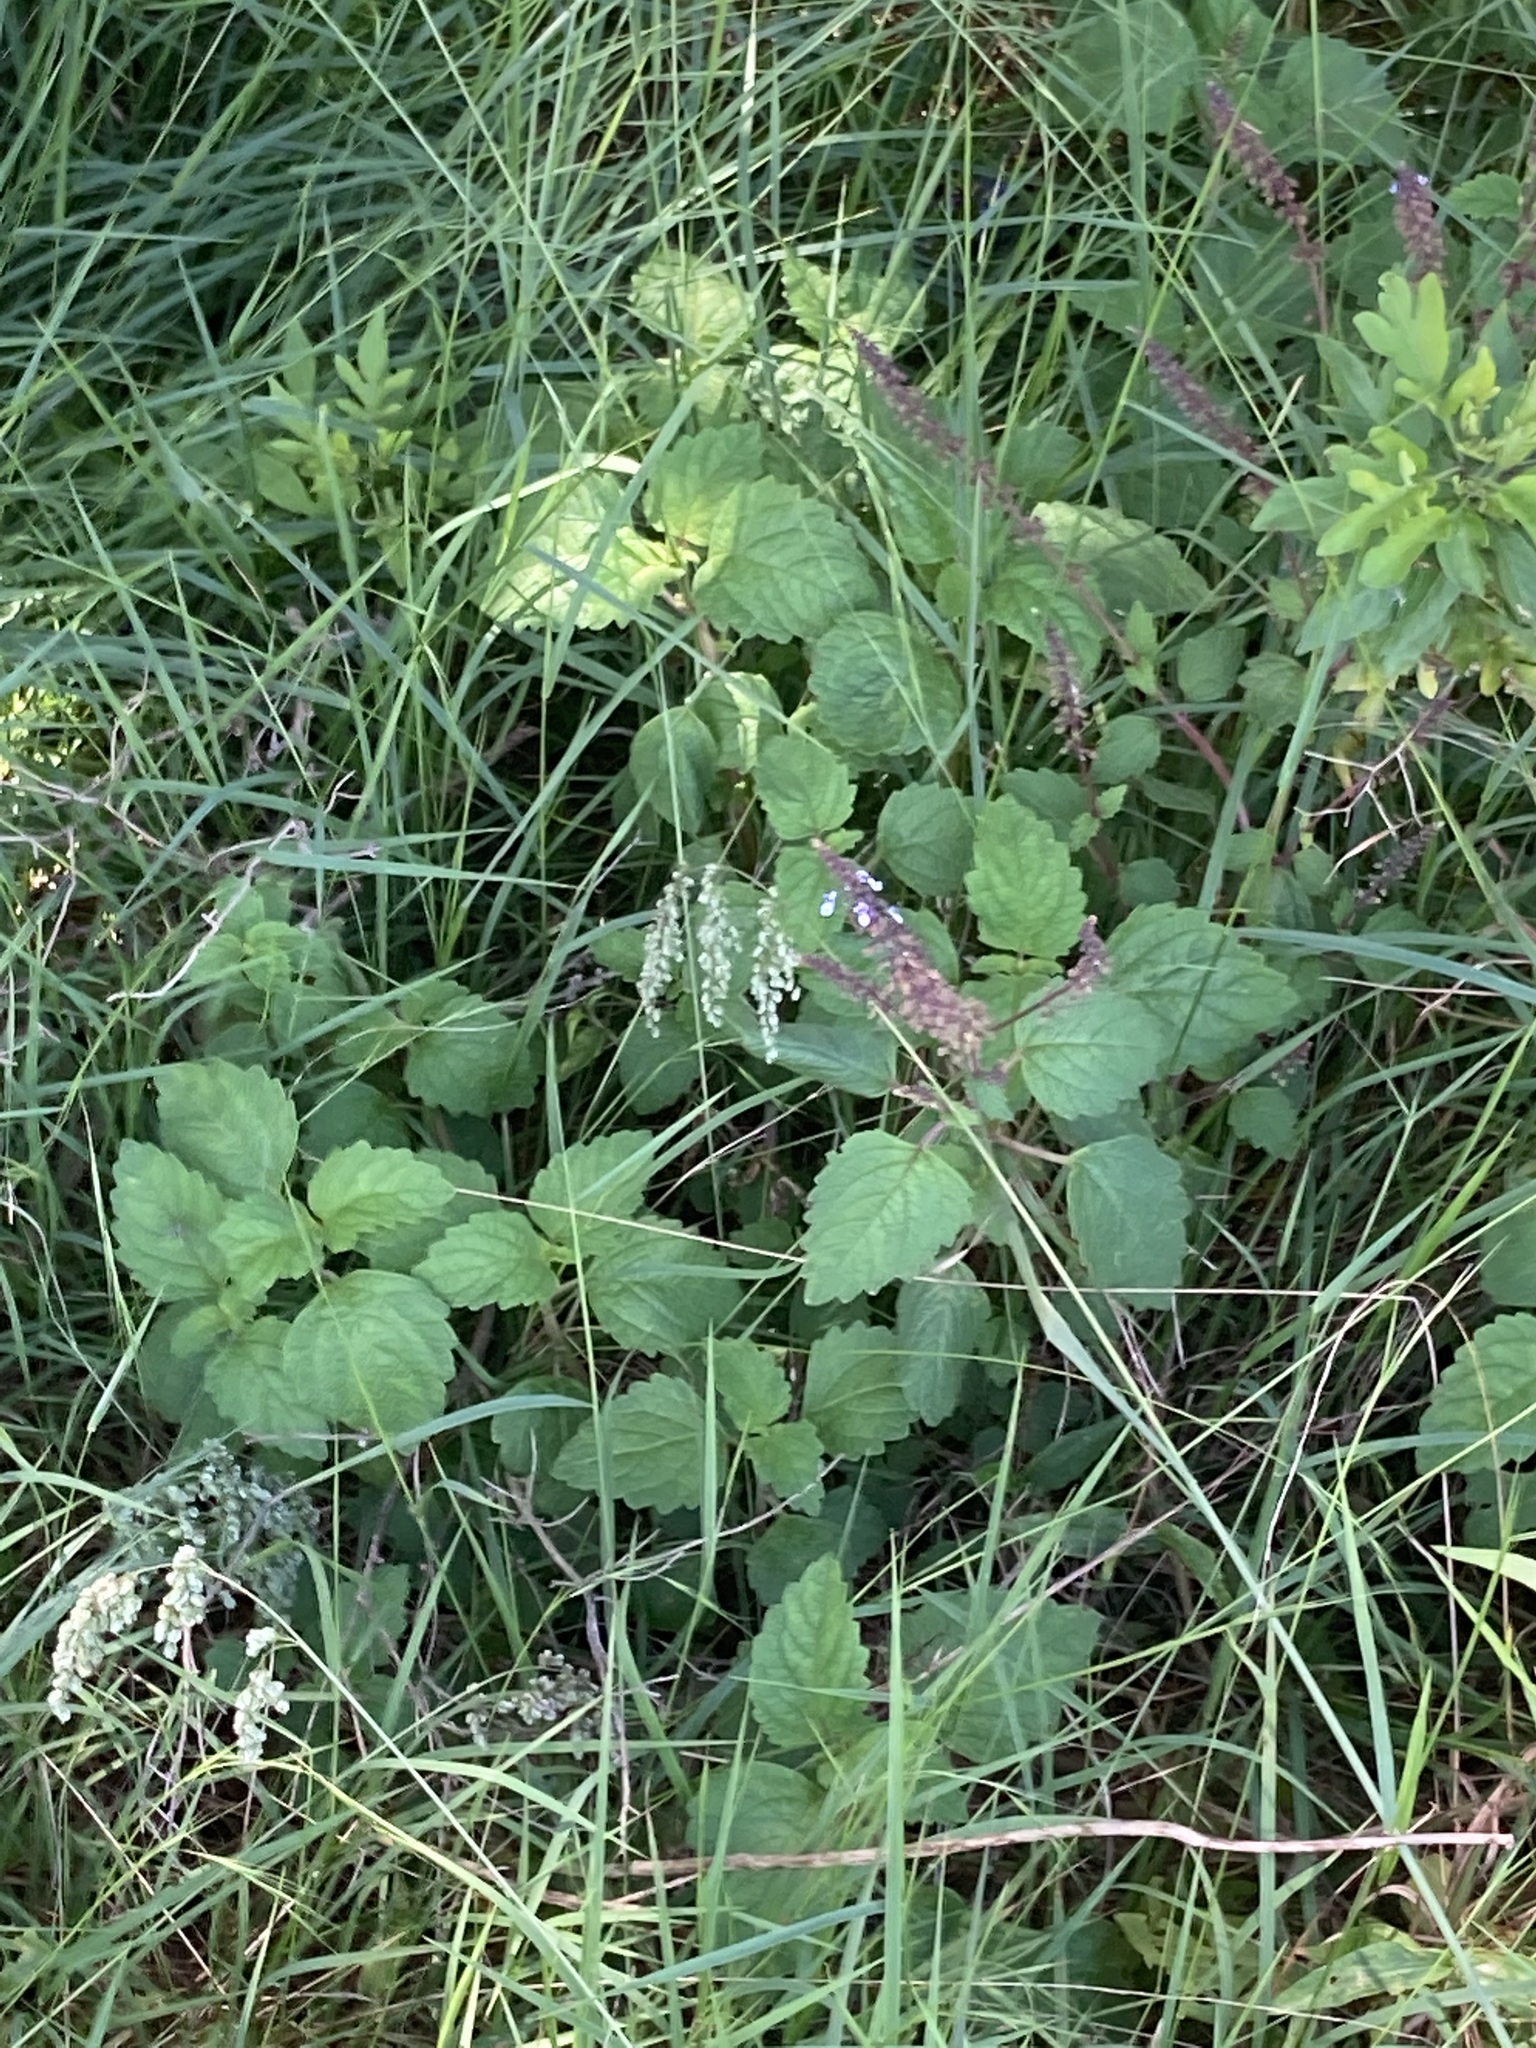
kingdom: Plantae
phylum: Tracheophyta
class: Magnoliopsida
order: Lamiales
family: Lamiaceae
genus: Coleus
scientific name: Coleus australis
